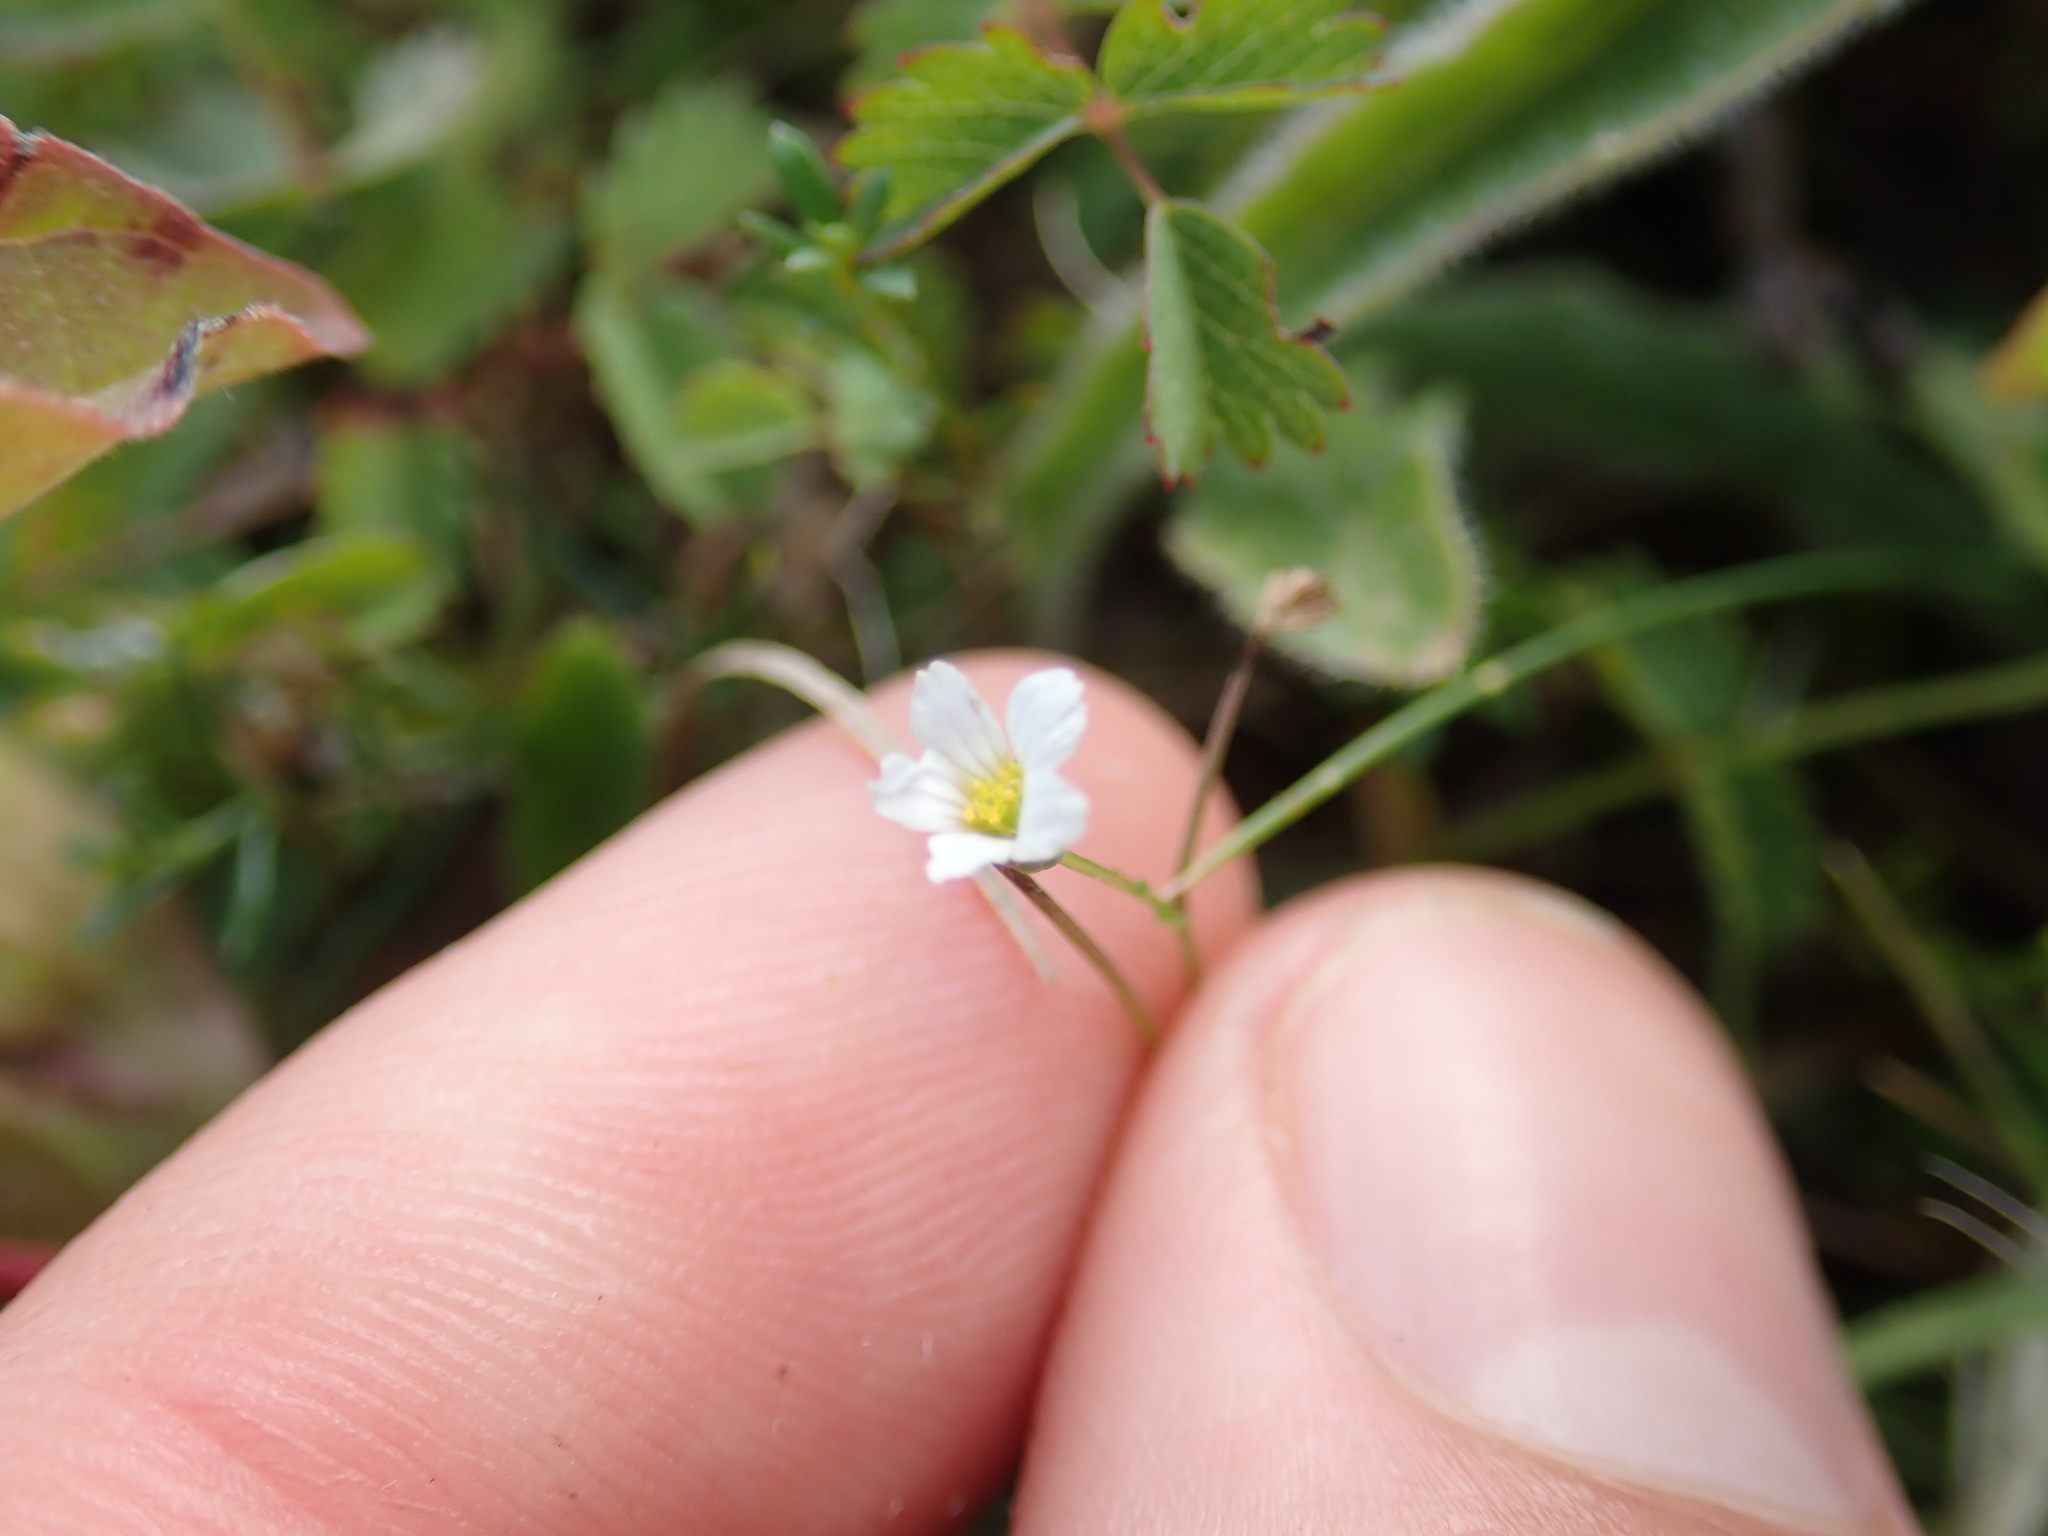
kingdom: Plantae
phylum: Tracheophyta
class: Magnoliopsida
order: Malpighiales
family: Linaceae
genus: Linum
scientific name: Linum catharticum
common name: Fairy flax
